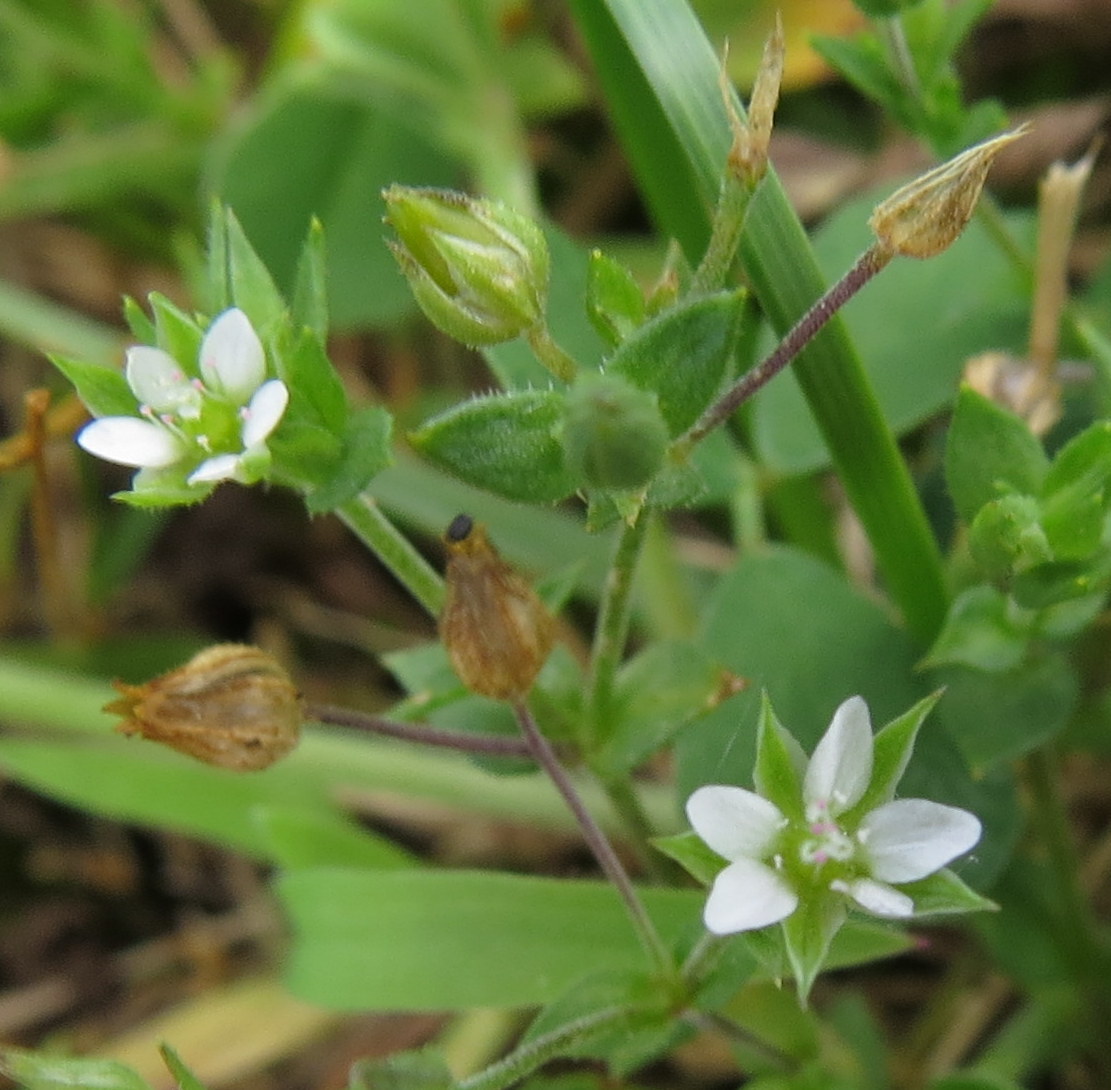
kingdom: Plantae
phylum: Tracheophyta
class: Magnoliopsida
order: Caryophyllales
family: Caryophyllaceae
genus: Arenaria
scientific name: Arenaria serpyllifolia
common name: Thyme-leaved sandwort
